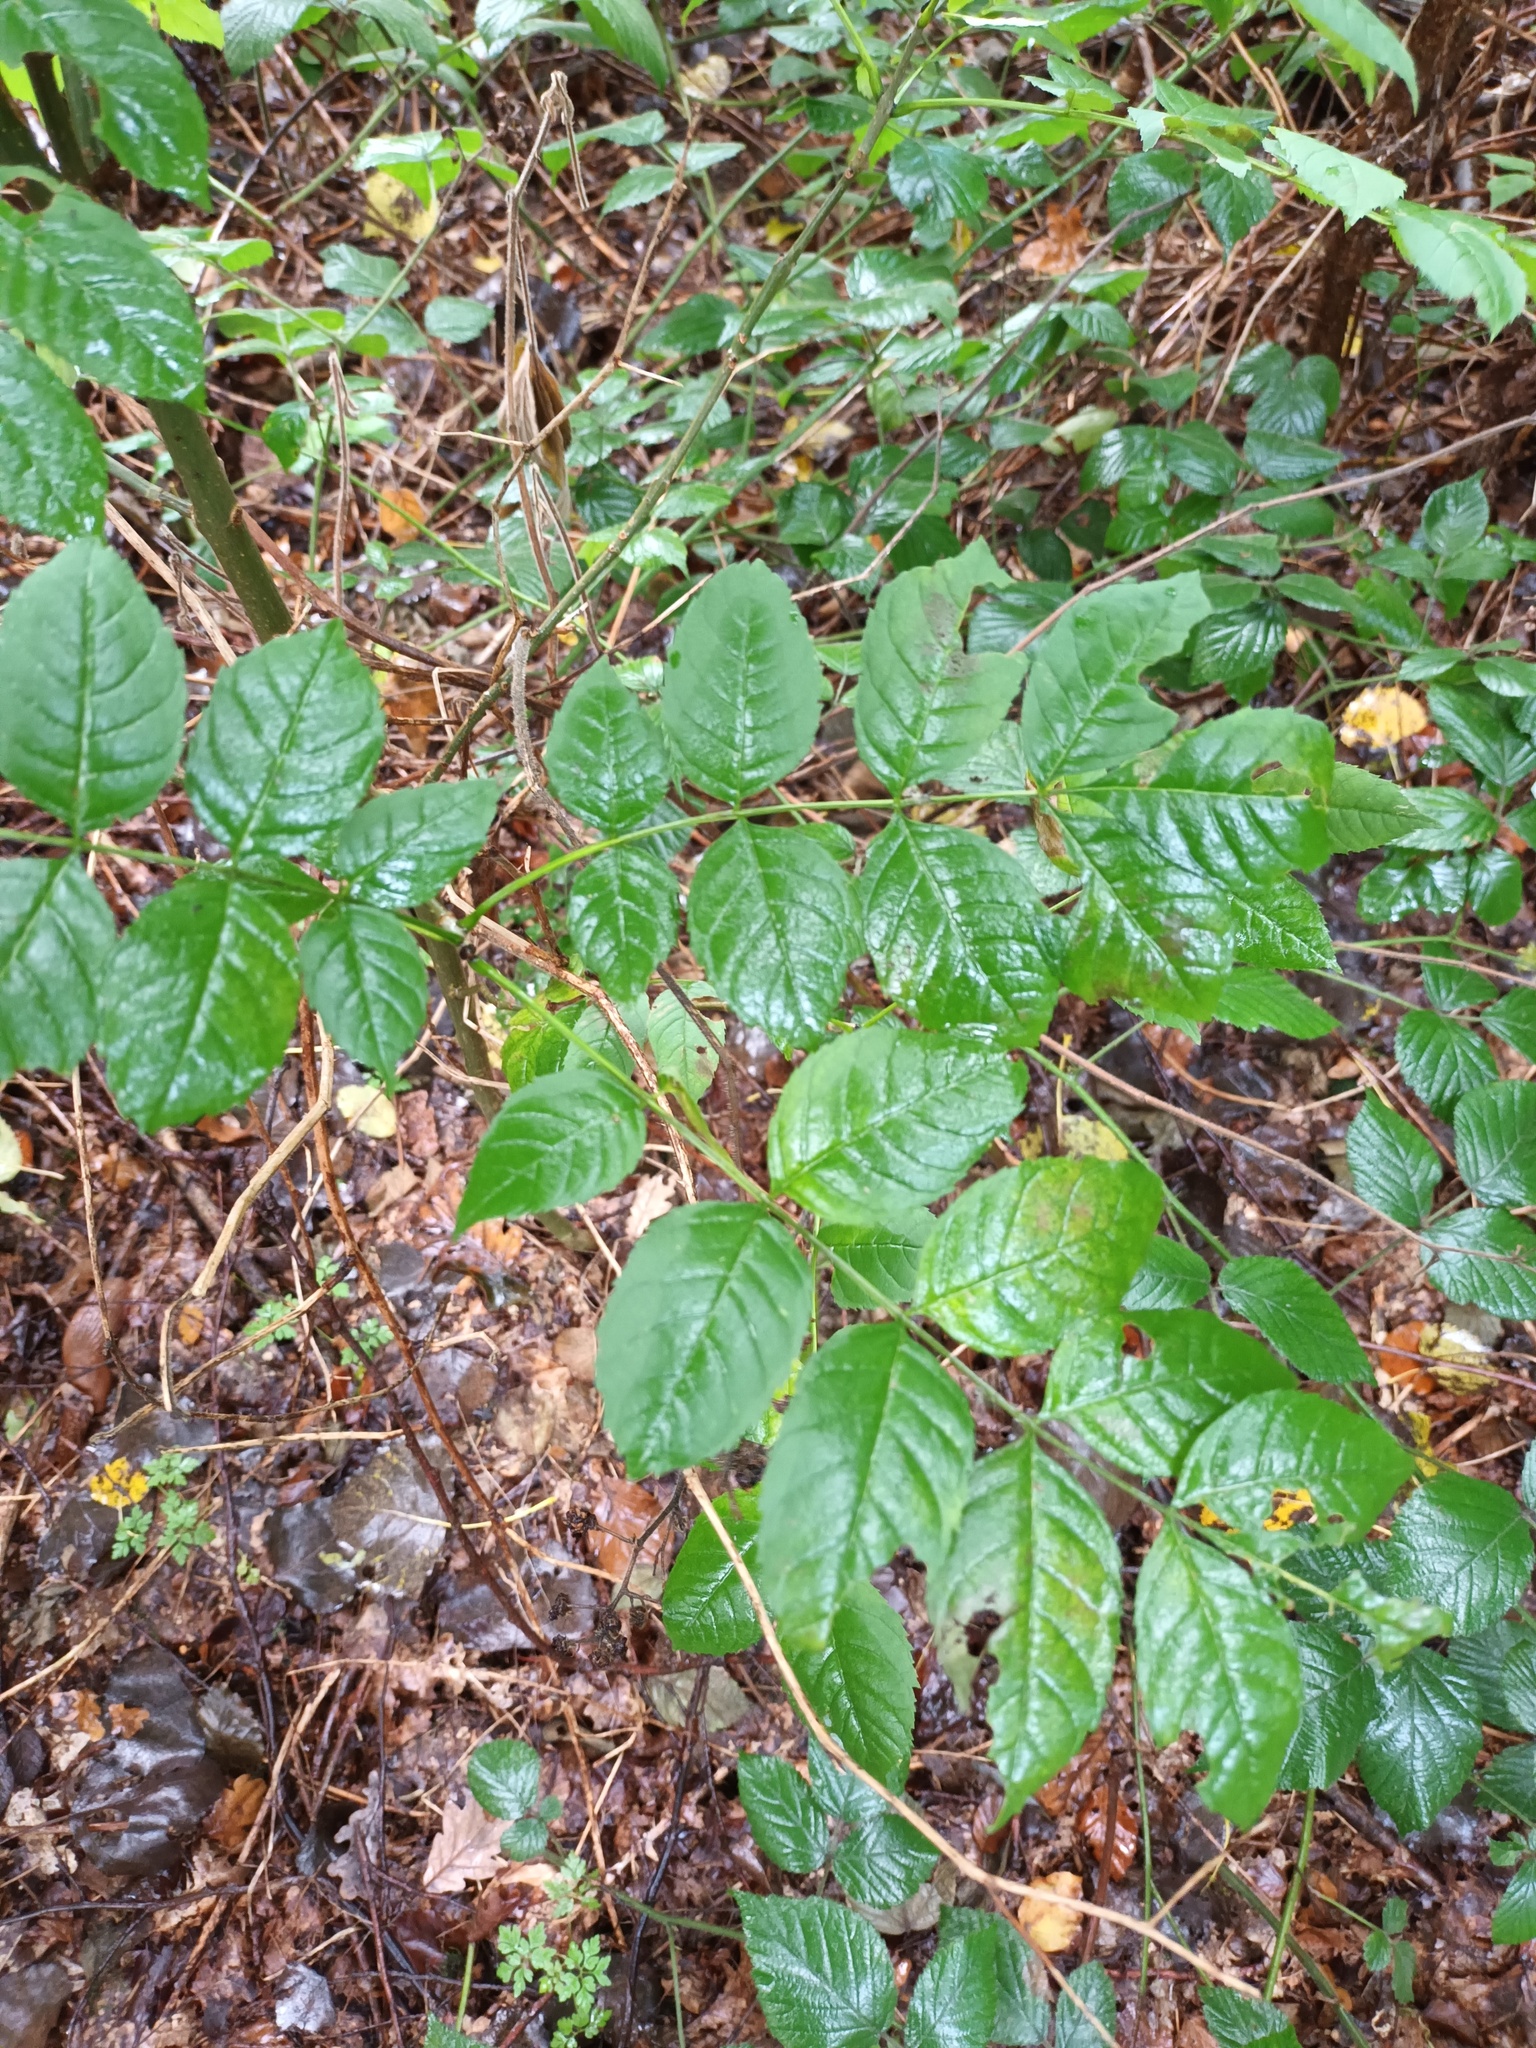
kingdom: Plantae
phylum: Tracheophyta
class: Magnoliopsida
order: Lamiales
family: Oleaceae
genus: Fraxinus
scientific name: Fraxinus excelsior
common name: European ash
